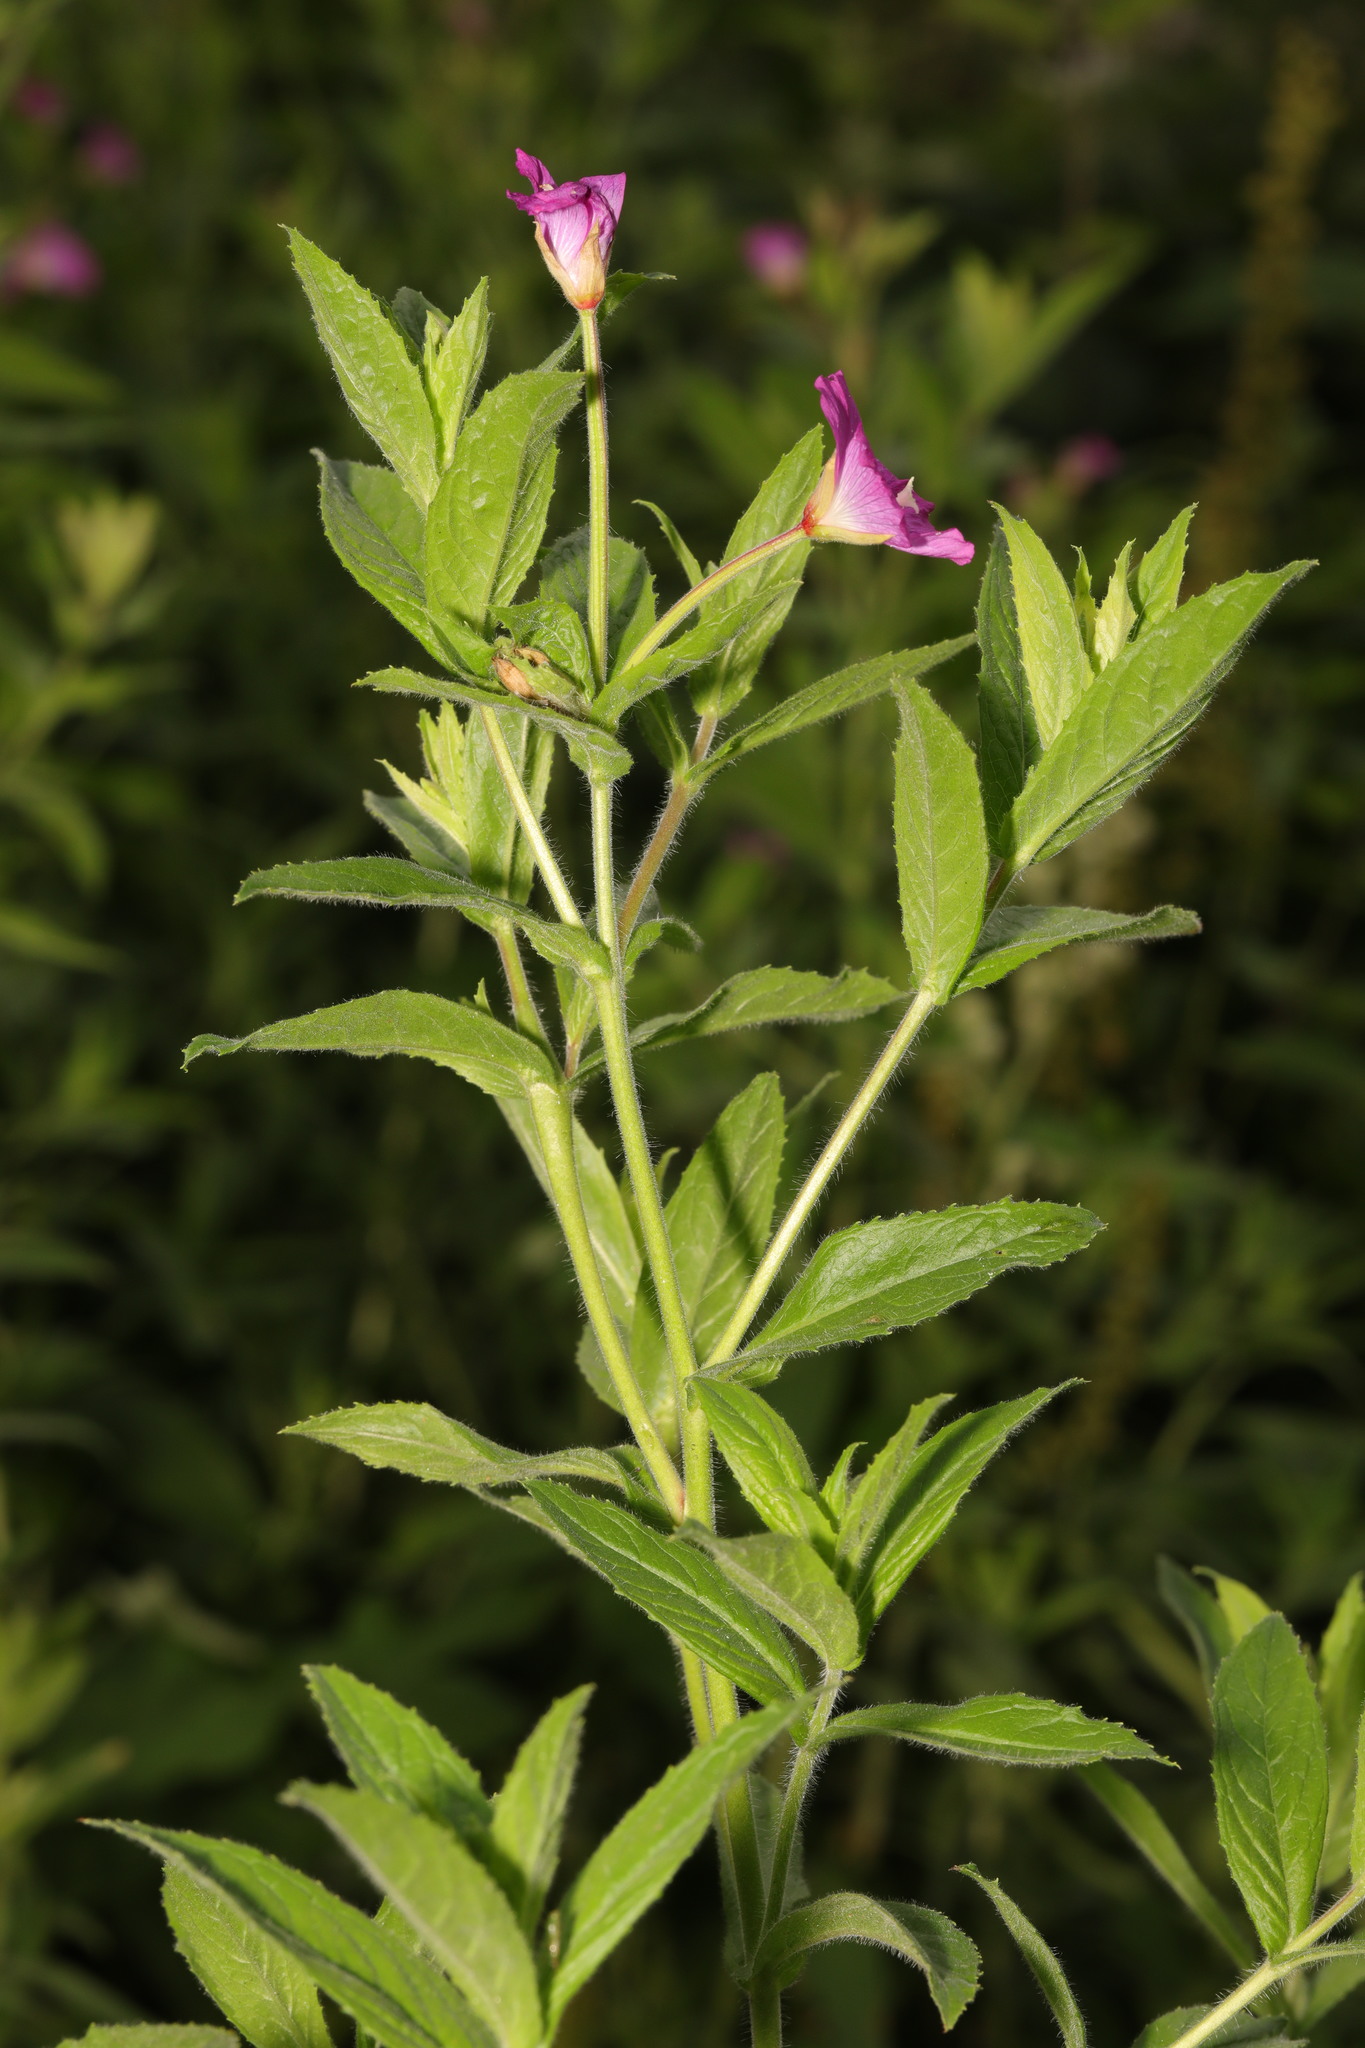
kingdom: Plantae
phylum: Tracheophyta
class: Magnoliopsida
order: Myrtales
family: Onagraceae
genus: Epilobium
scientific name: Epilobium hirsutum
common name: Great willowherb
